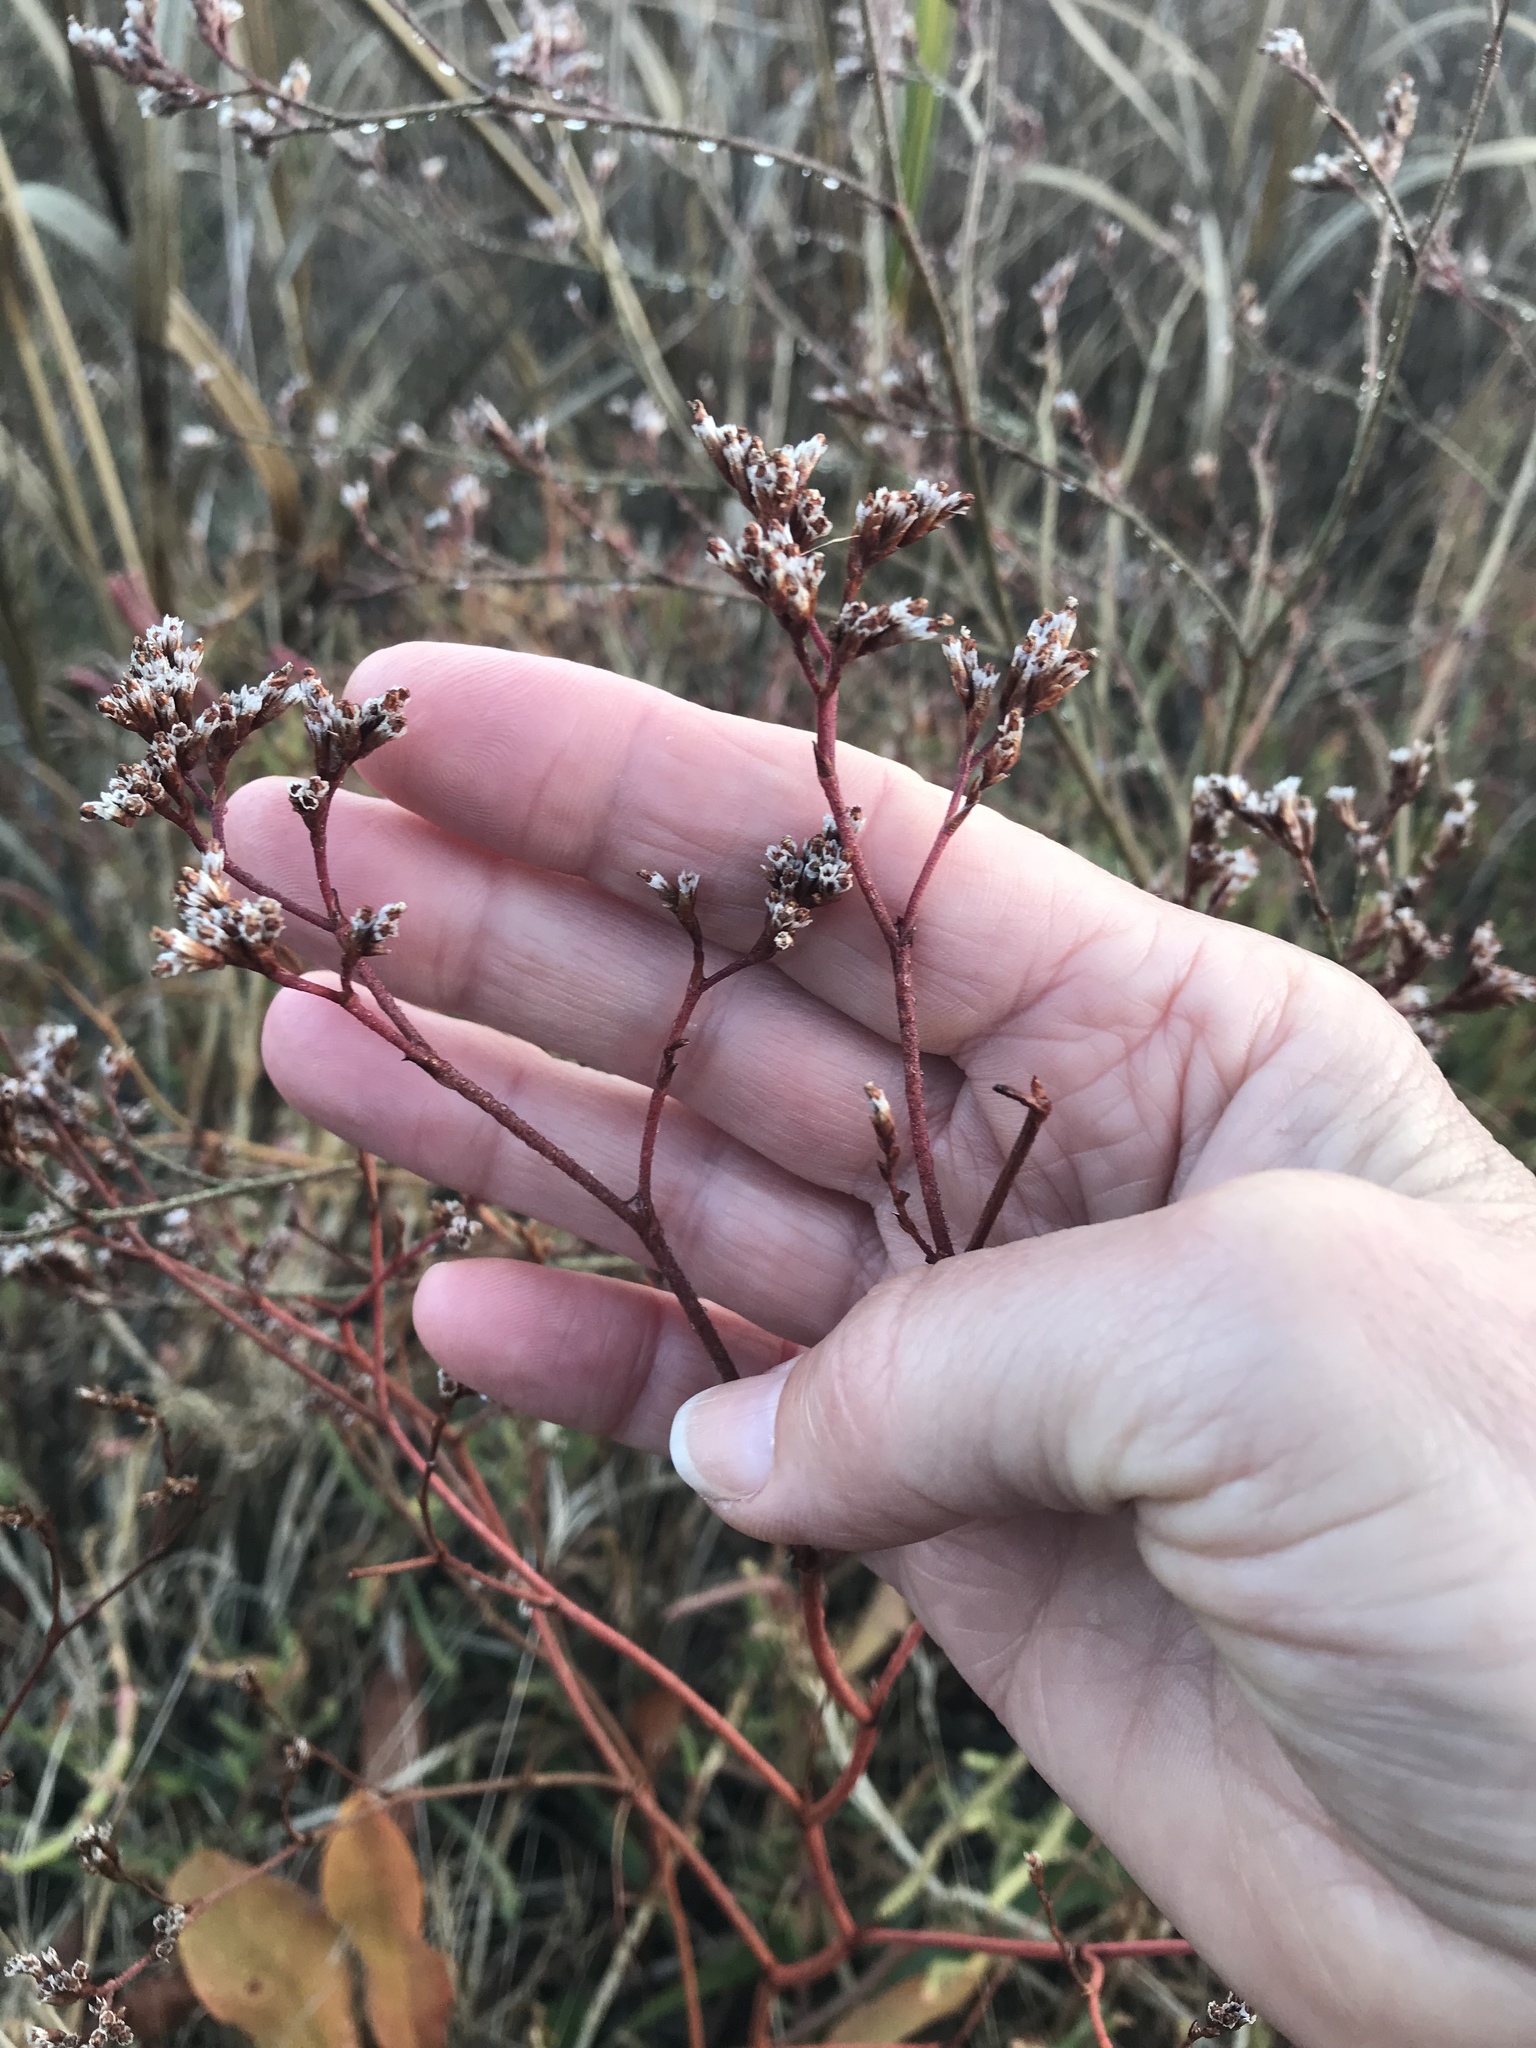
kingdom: Plantae
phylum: Tracheophyta
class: Magnoliopsida
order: Caryophyllales
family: Plumbaginaceae
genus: Limonium
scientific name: Limonium californicum
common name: Marsh-rosemary
